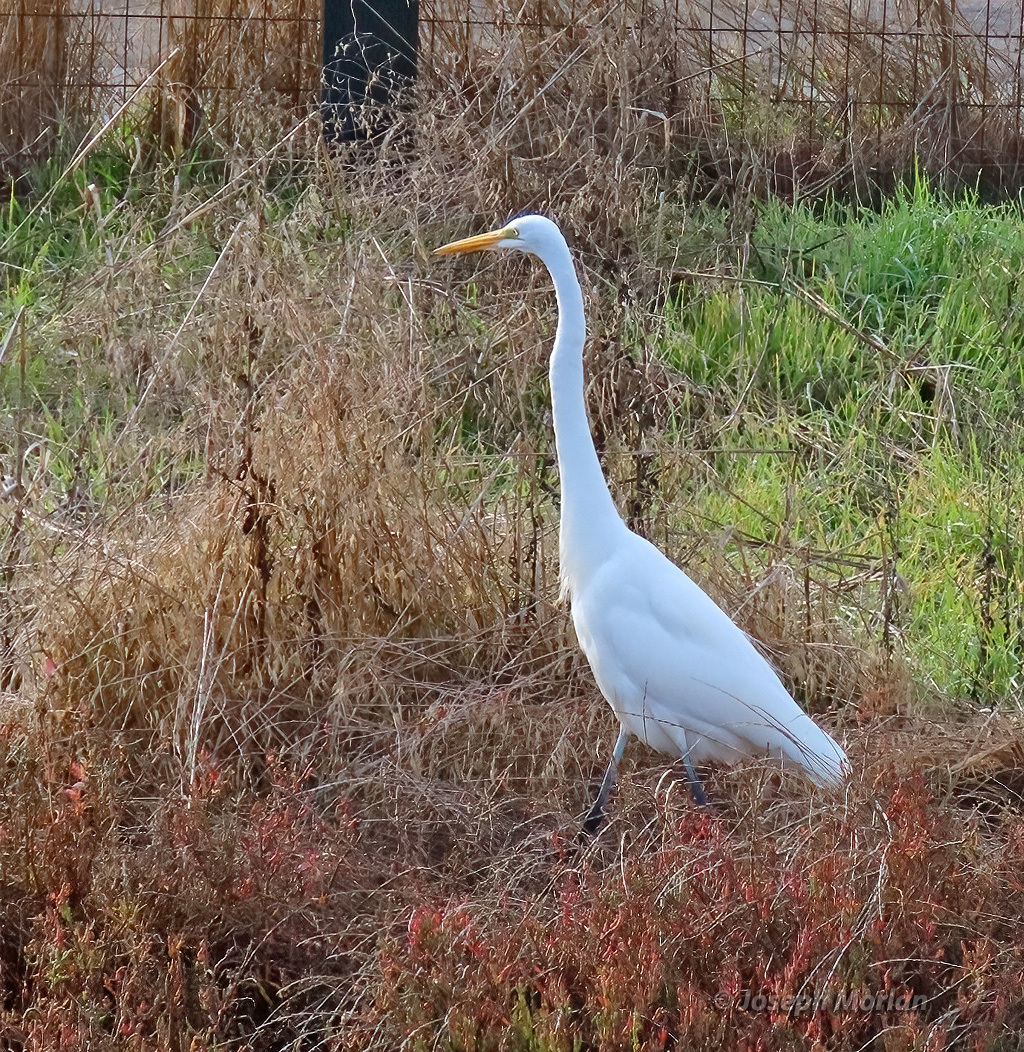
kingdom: Animalia
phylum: Chordata
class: Aves
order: Pelecaniformes
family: Ardeidae
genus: Ardea
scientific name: Ardea alba
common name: Great egret
